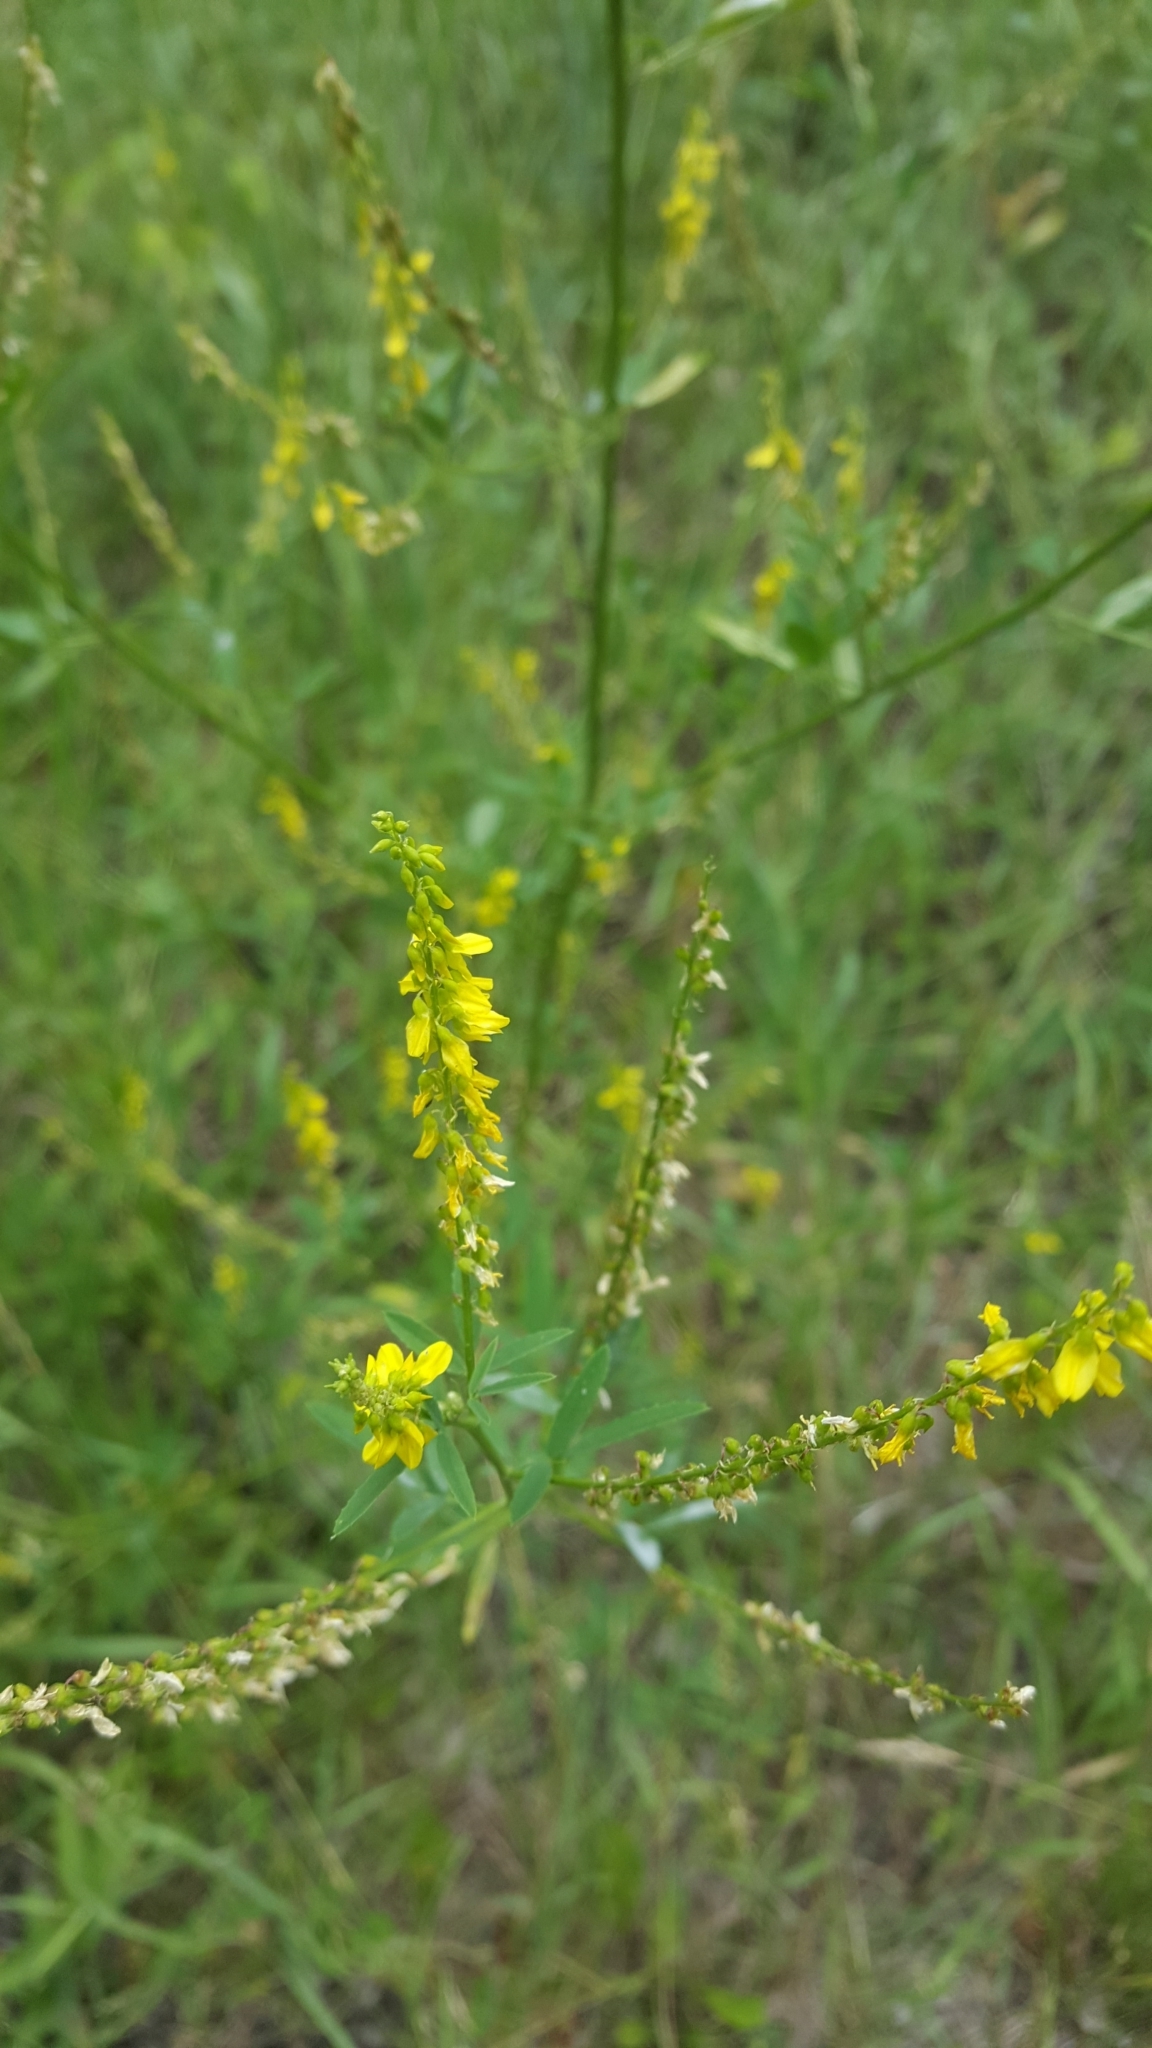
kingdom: Plantae
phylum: Tracheophyta
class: Magnoliopsida
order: Fabales
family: Fabaceae
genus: Melilotus
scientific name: Melilotus officinalis
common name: Sweetclover
